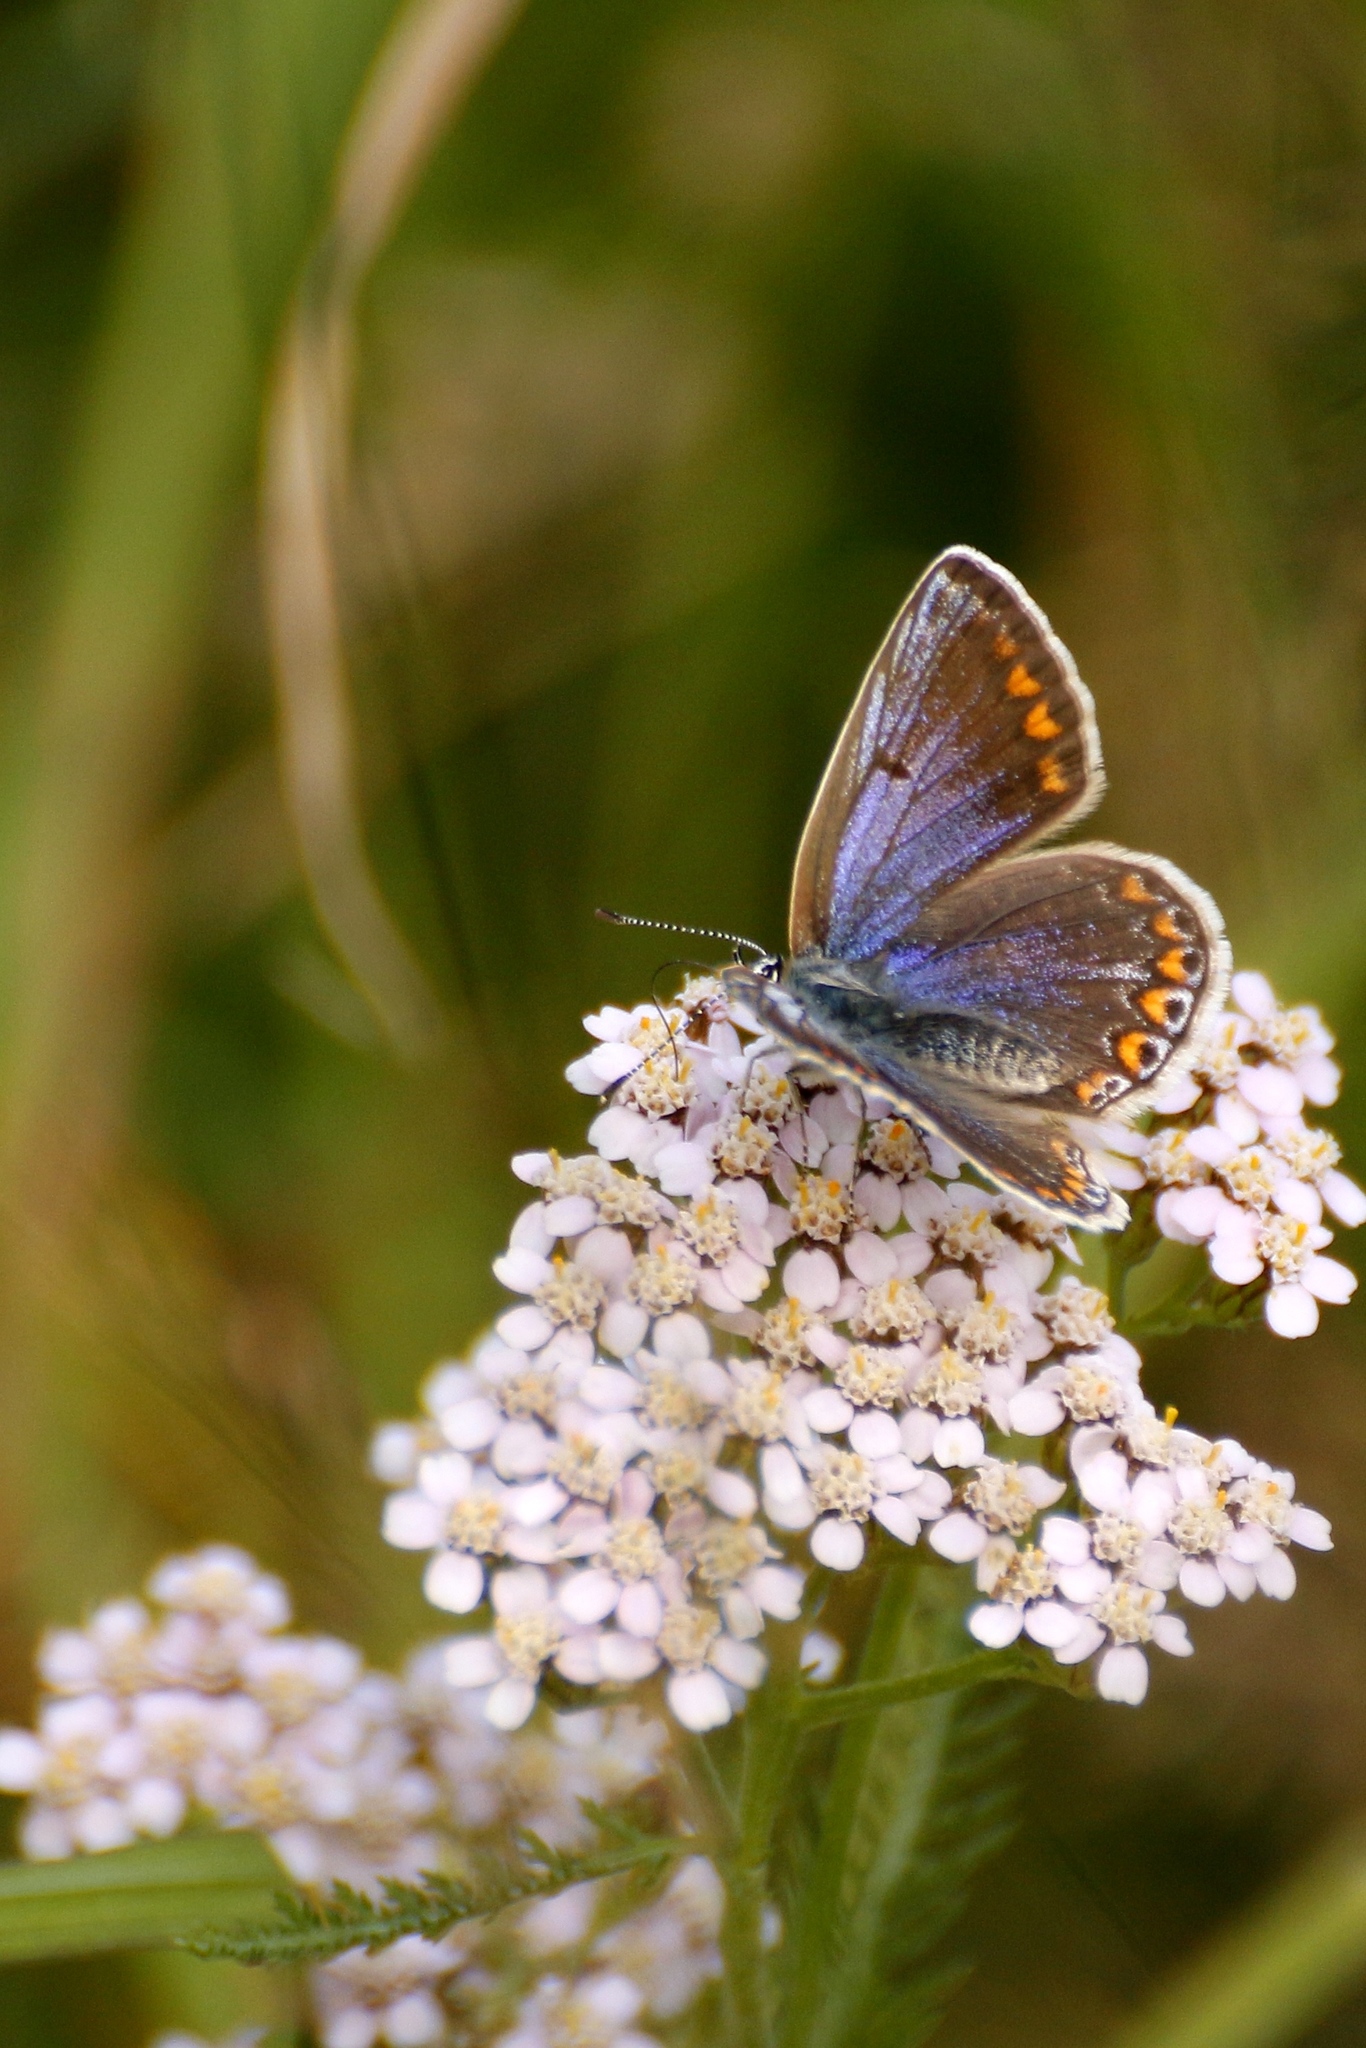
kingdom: Animalia
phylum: Arthropoda
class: Insecta
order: Lepidoptera
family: Lycaenidae
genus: Polyommatus
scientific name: Polyommatus icarus
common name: Common blue
